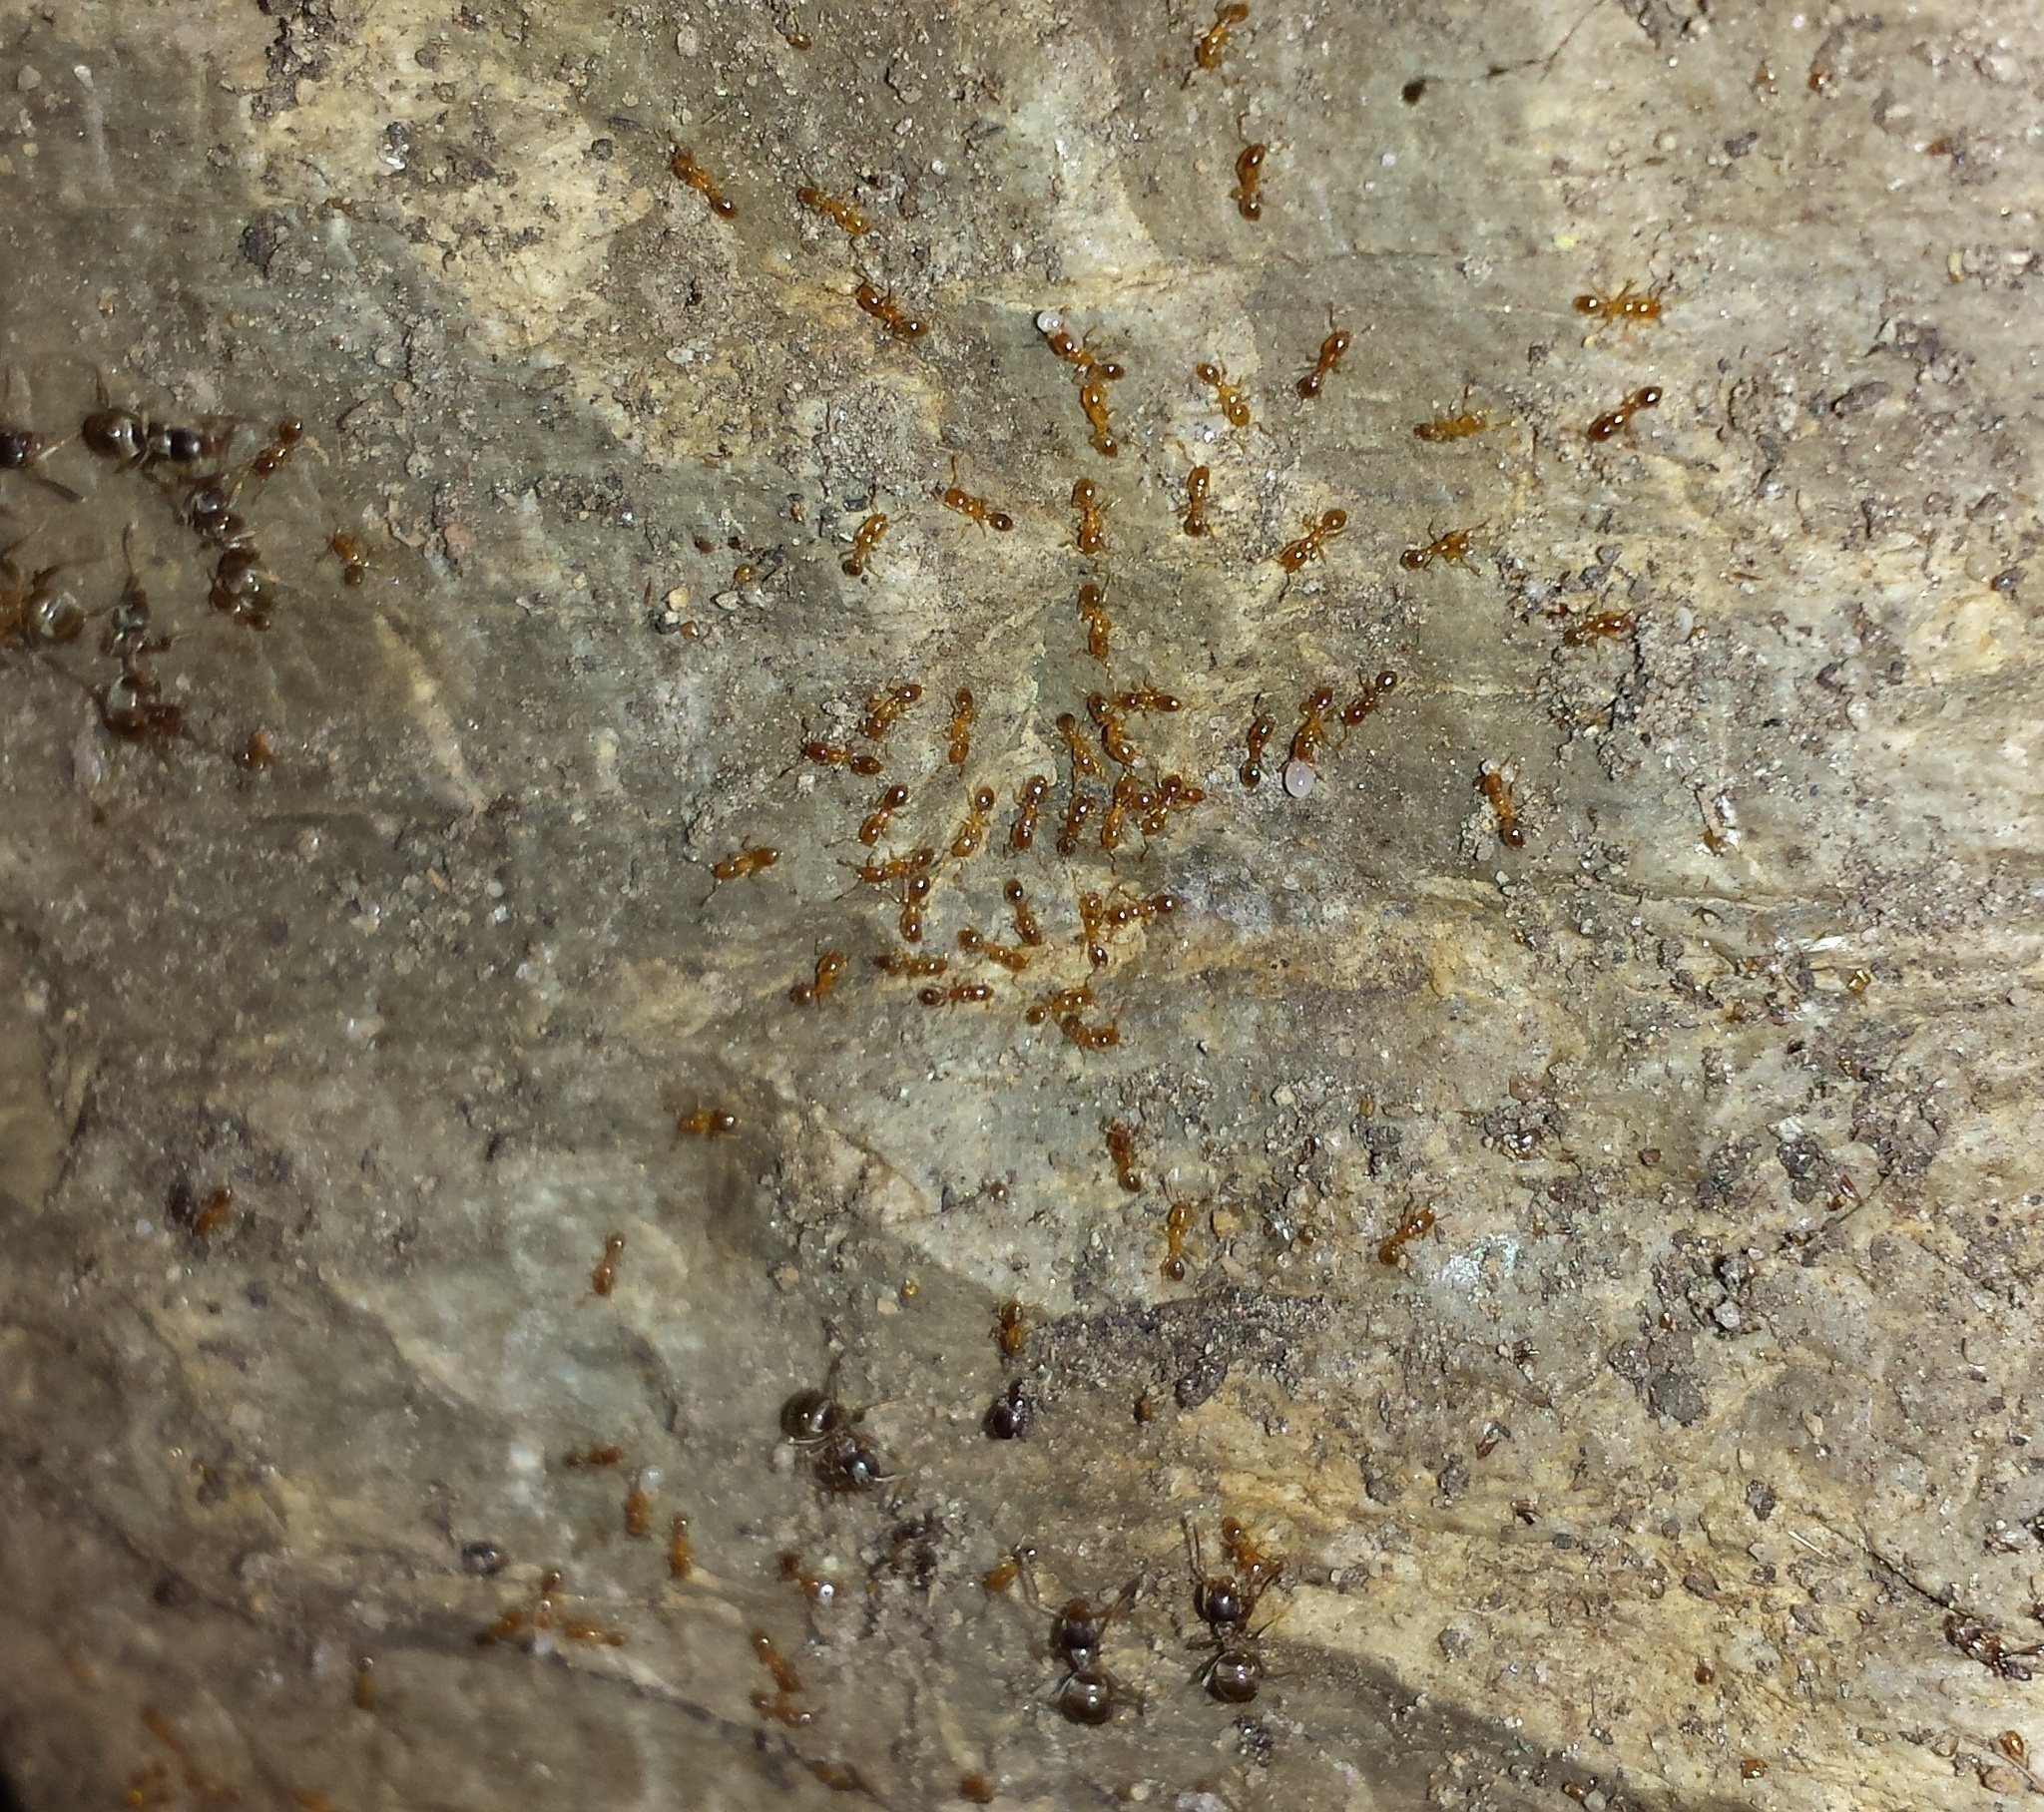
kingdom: Animalia
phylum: Arthropoda
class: Insecta
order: Hymenoptera
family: Formicidae
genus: Solenopsis
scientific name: Solenopsis molesta
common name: Thief ant
